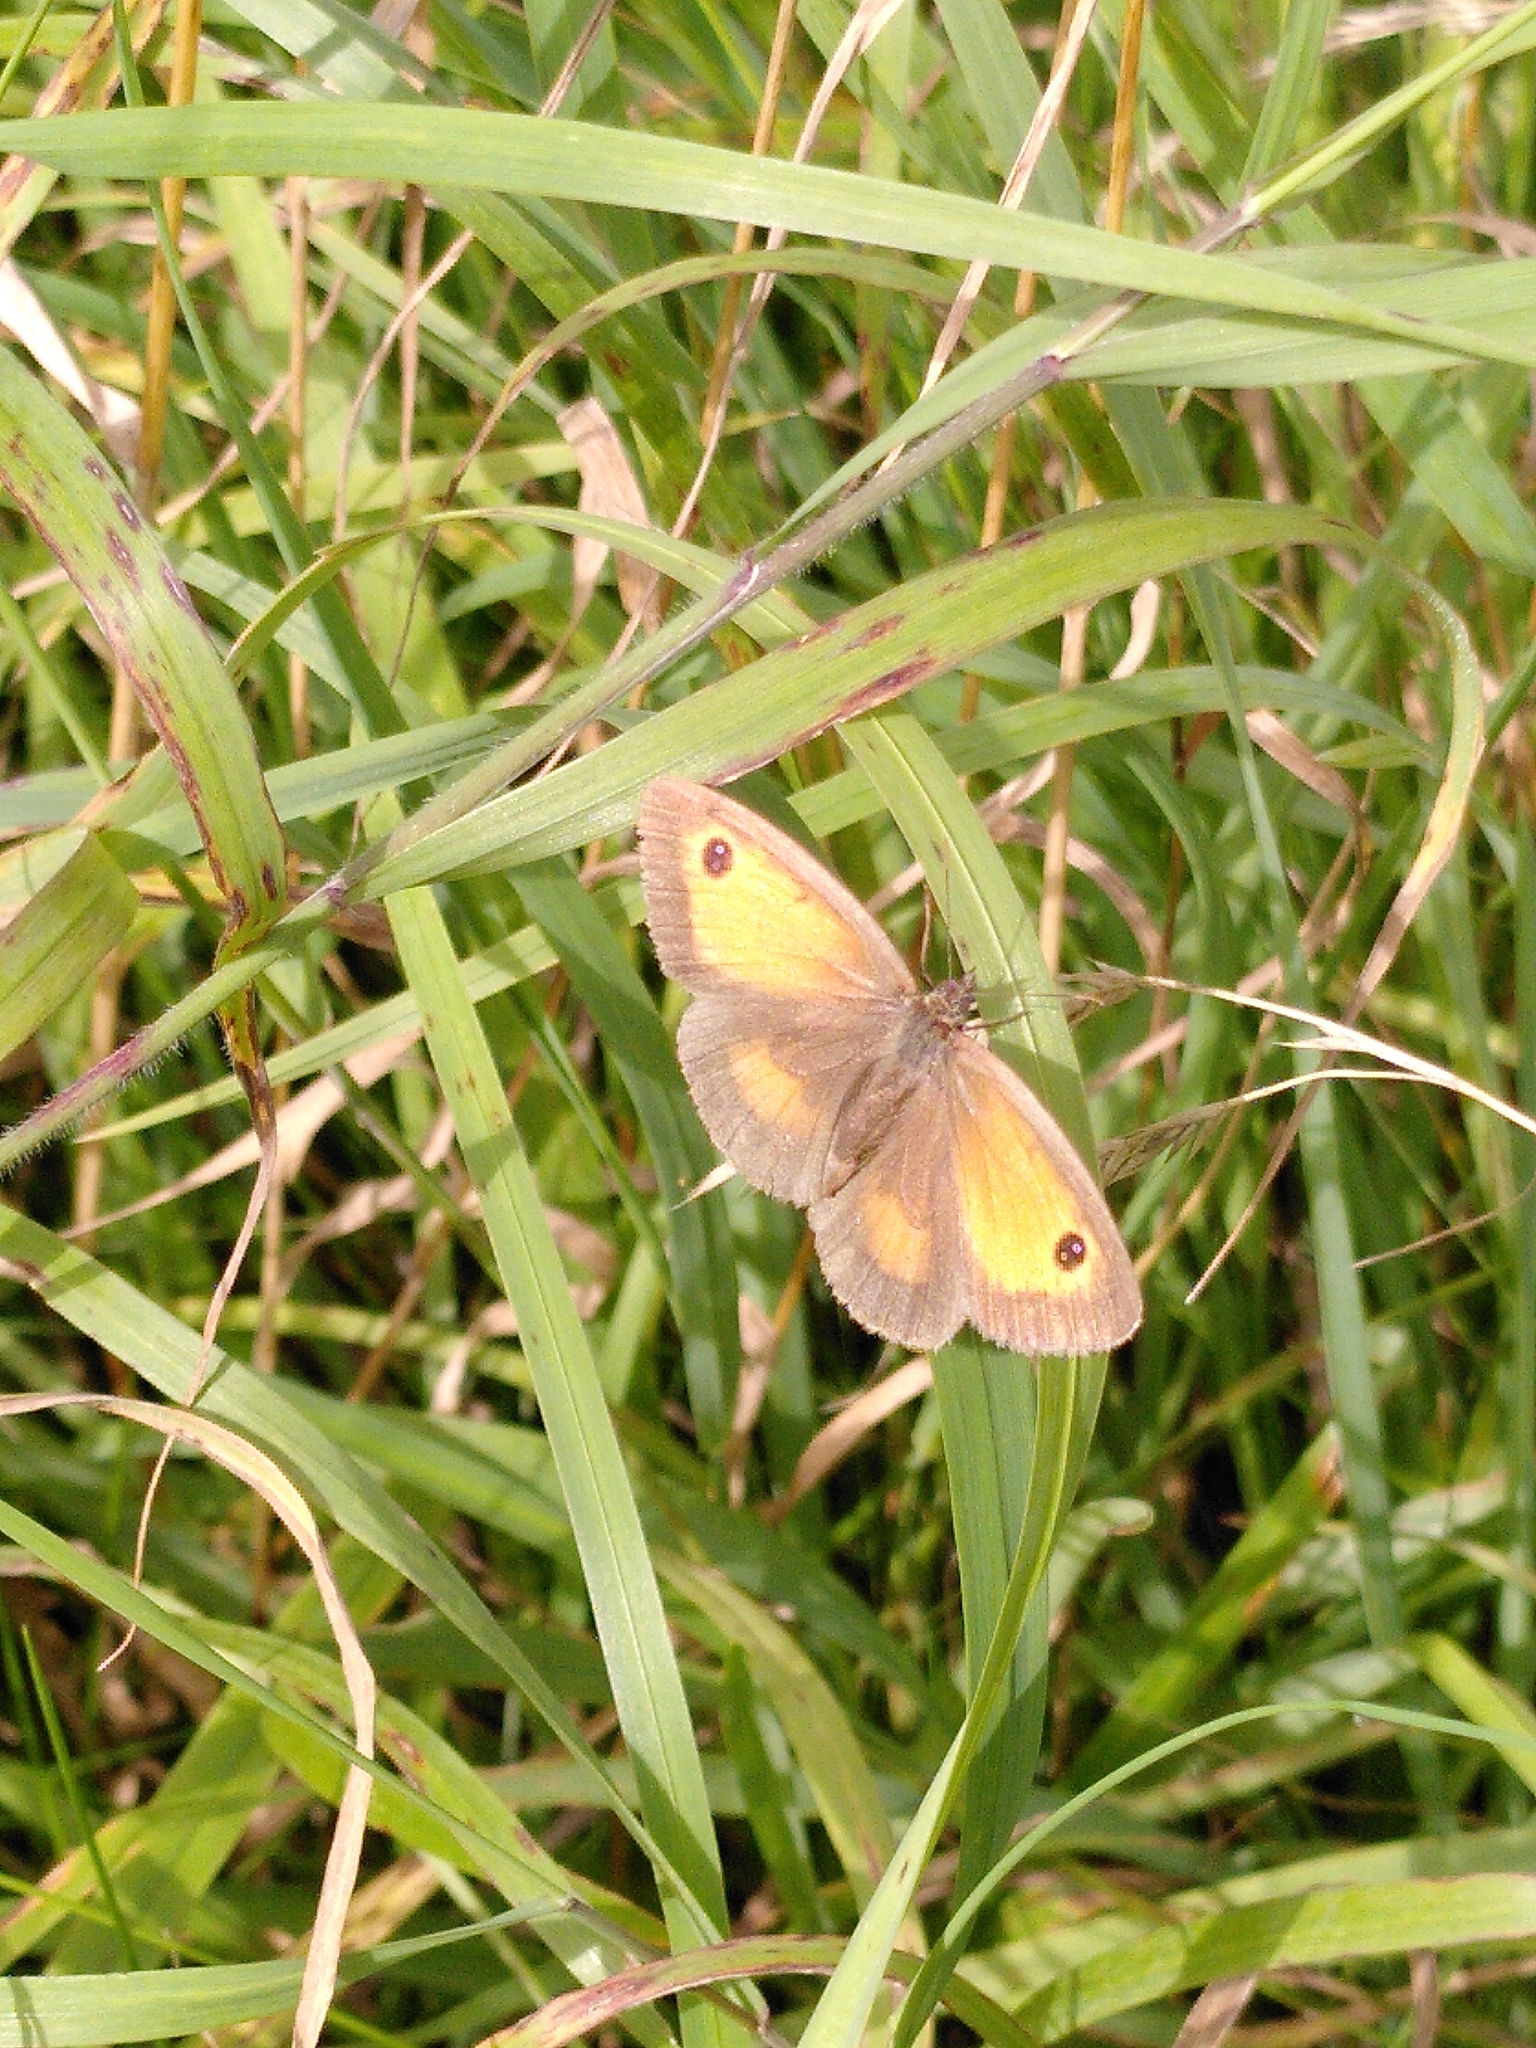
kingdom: Animalia
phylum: Arthropoda
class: Insecta
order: Lepidoptera
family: Nymphalidae
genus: Pyronia
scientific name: Pyronia tithonus
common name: Gatekeeper
